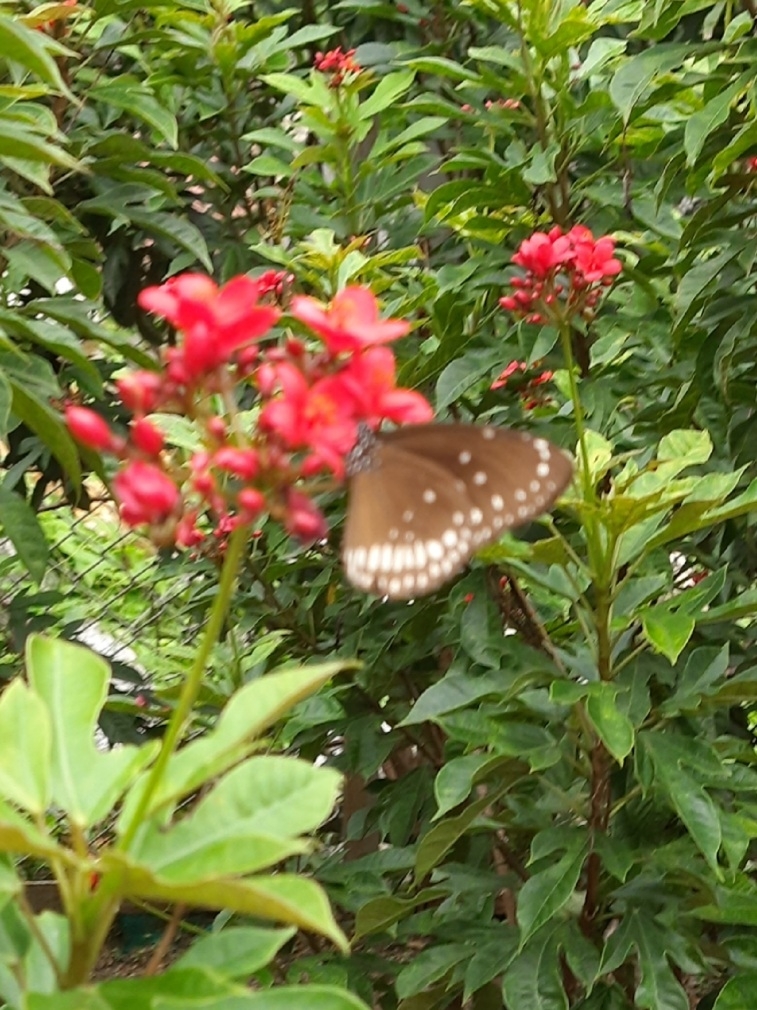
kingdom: Animalia
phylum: Arthropoda
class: Insecta
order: Lepidoptera
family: Nymphalidae
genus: Euploea
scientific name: Euploea core
